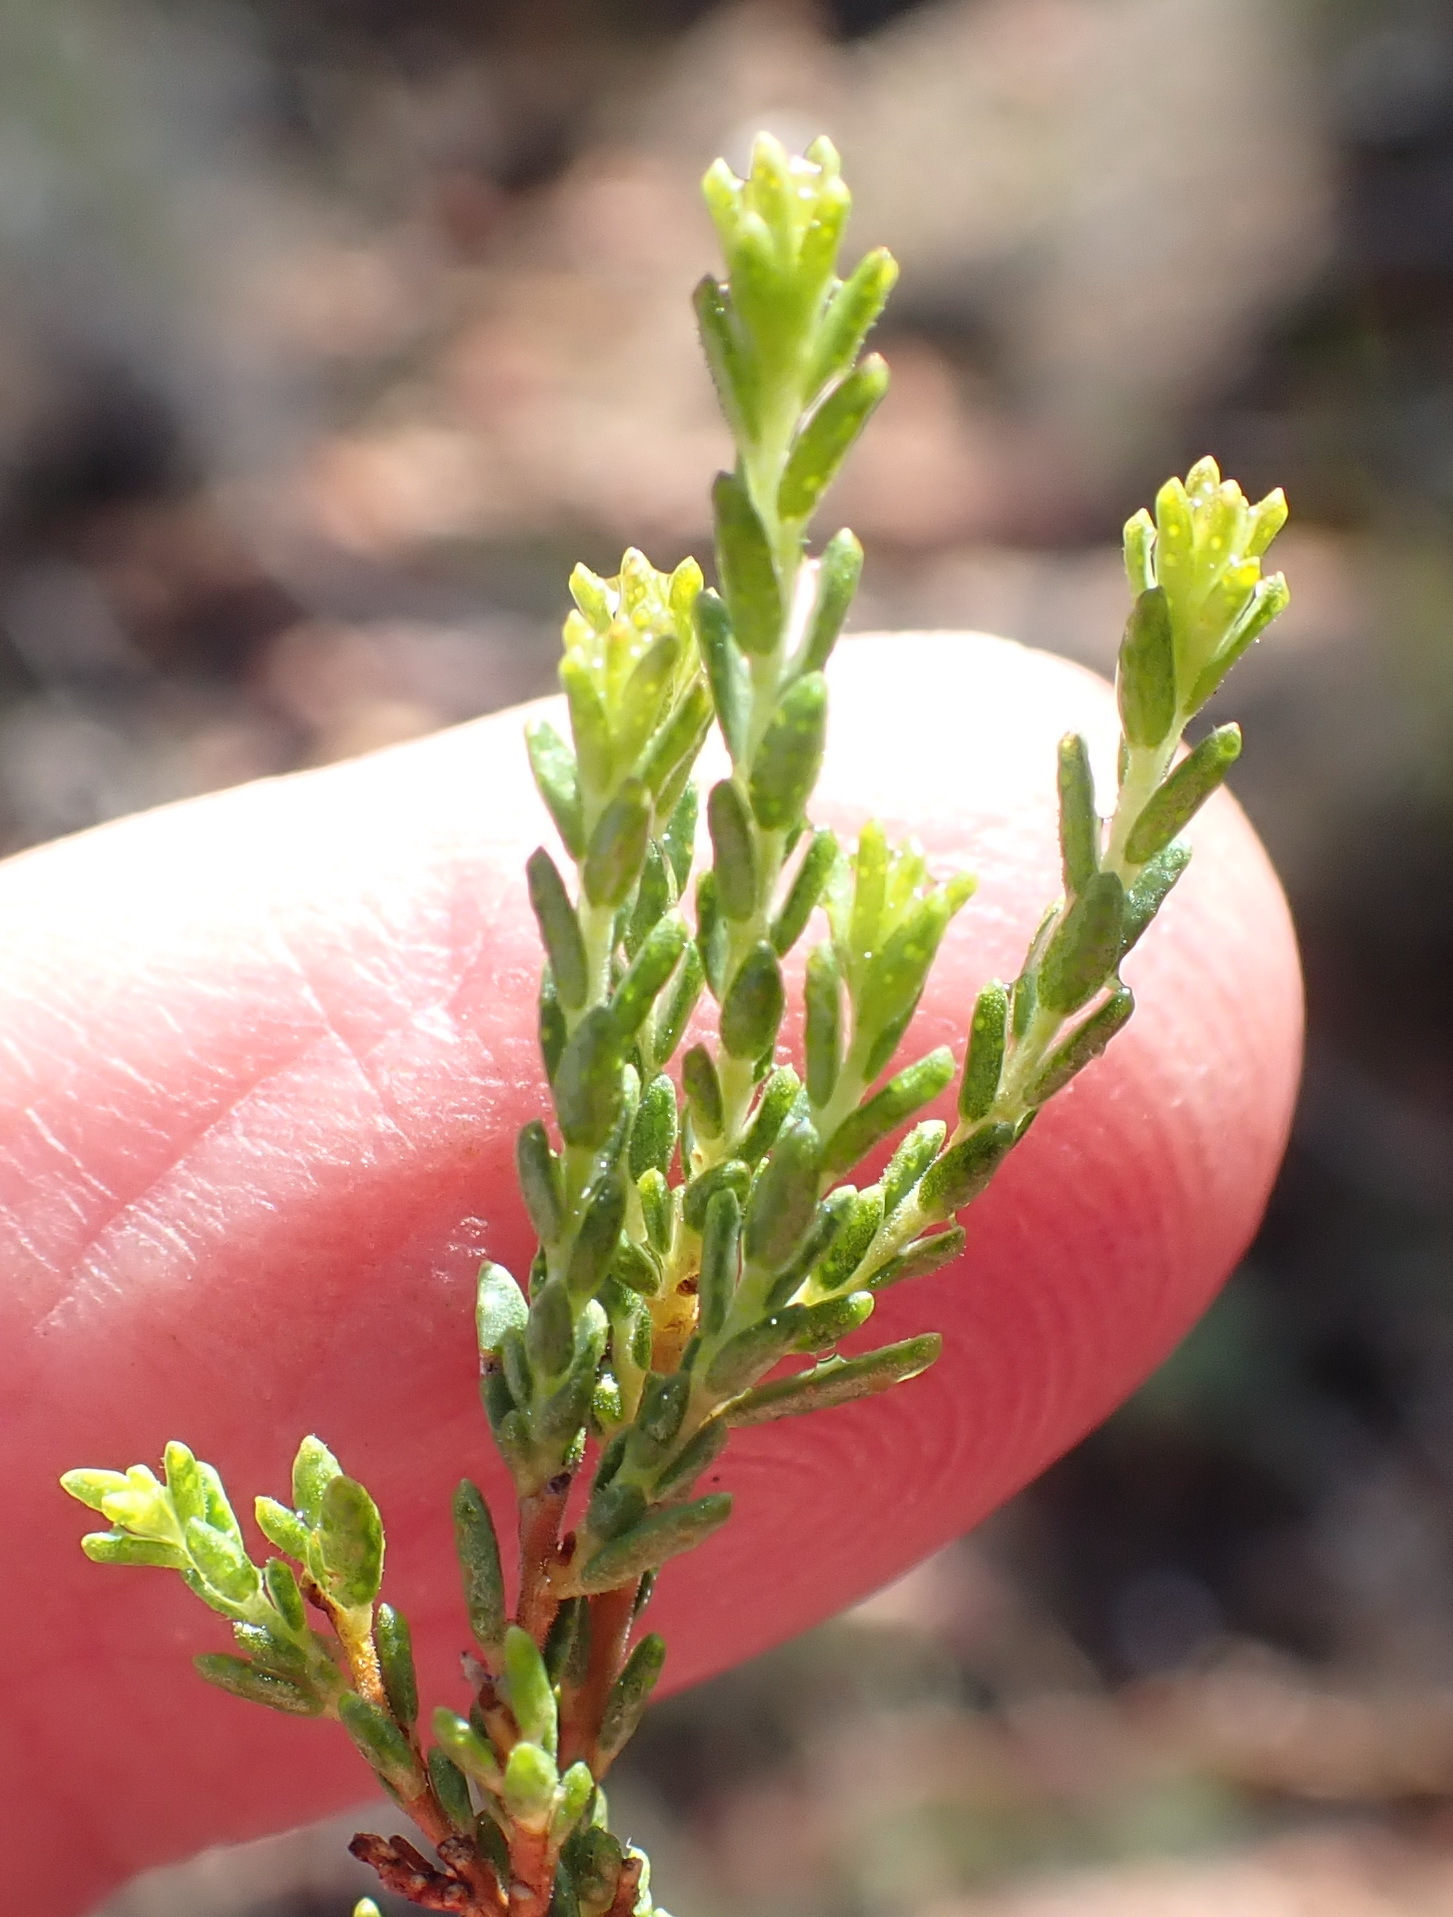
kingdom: Plantae
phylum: Tracheophyta
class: Magnoliopsida
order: Sapindales
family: Rutaceae
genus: Agathosma
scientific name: Agathosma capensis
